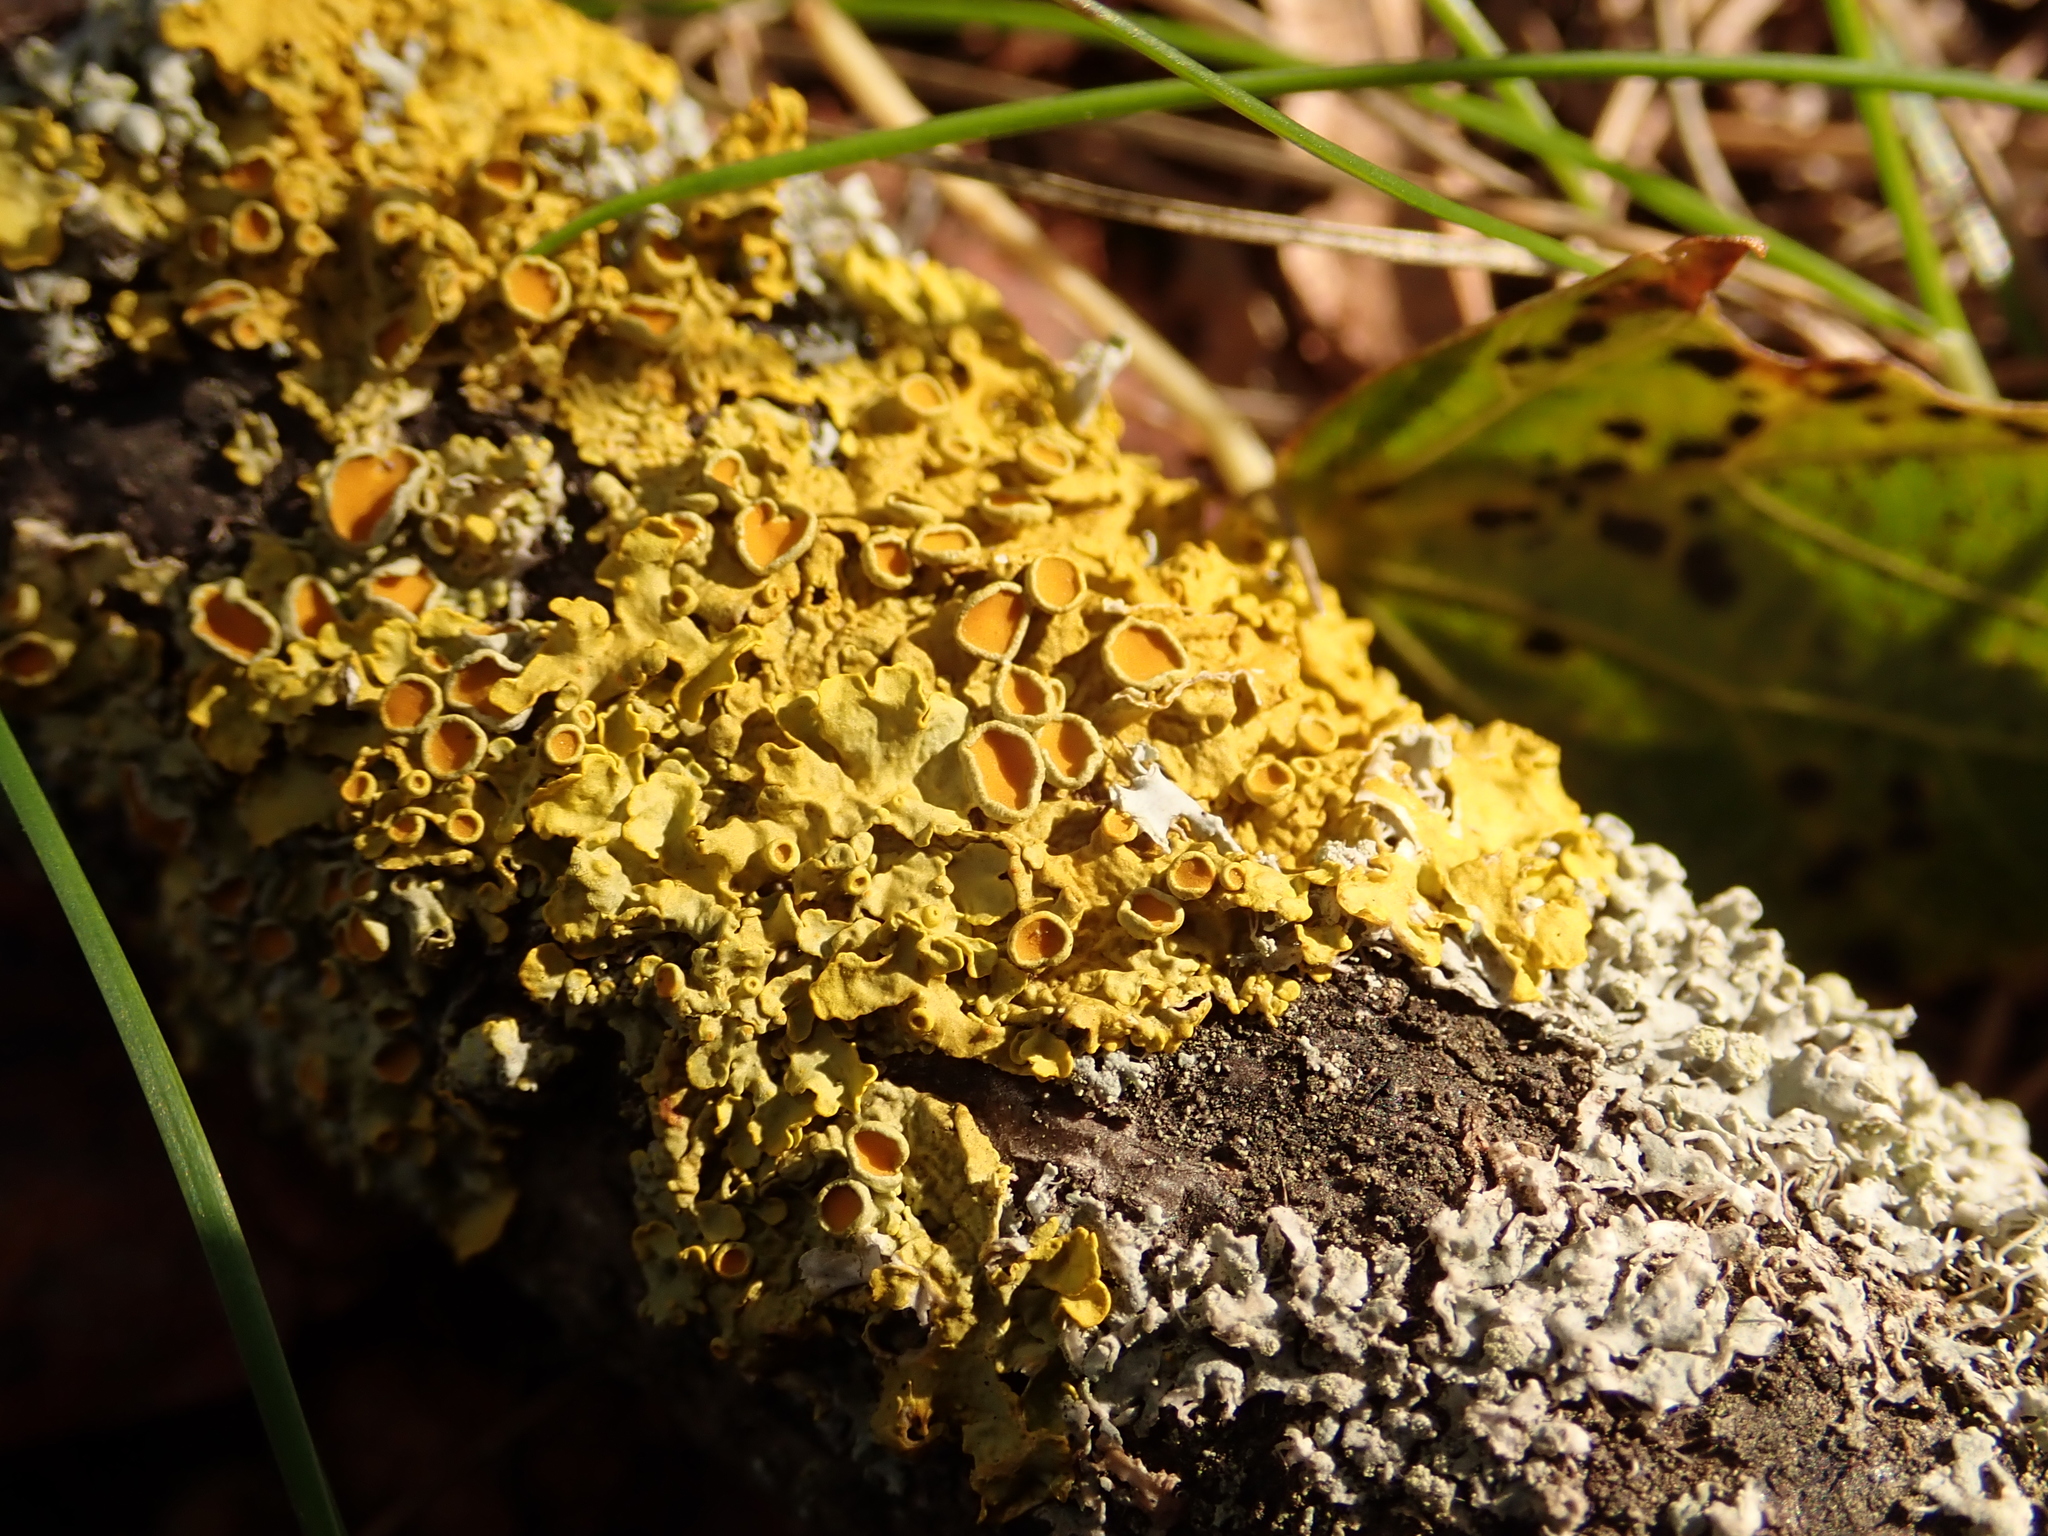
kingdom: Fungi
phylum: Ascomycota
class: Lecanoromycetes
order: Teloschistales
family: Teloschistaceae
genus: Xanthoria
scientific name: Xanthoria parietina
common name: Common orange lichen
